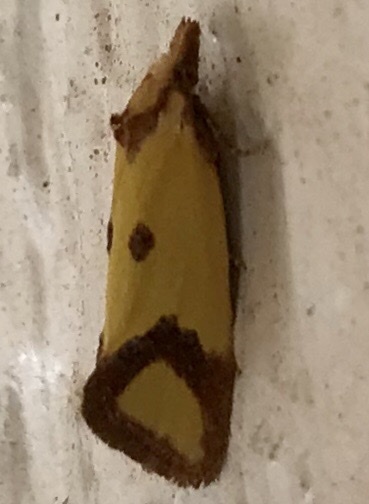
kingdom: Animalia
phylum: Arthropoda
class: Insecta
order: Lepidoptera
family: Tortricidae
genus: Agapeta
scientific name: Agapeta zoegana
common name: Sulfur knapweed root moth
